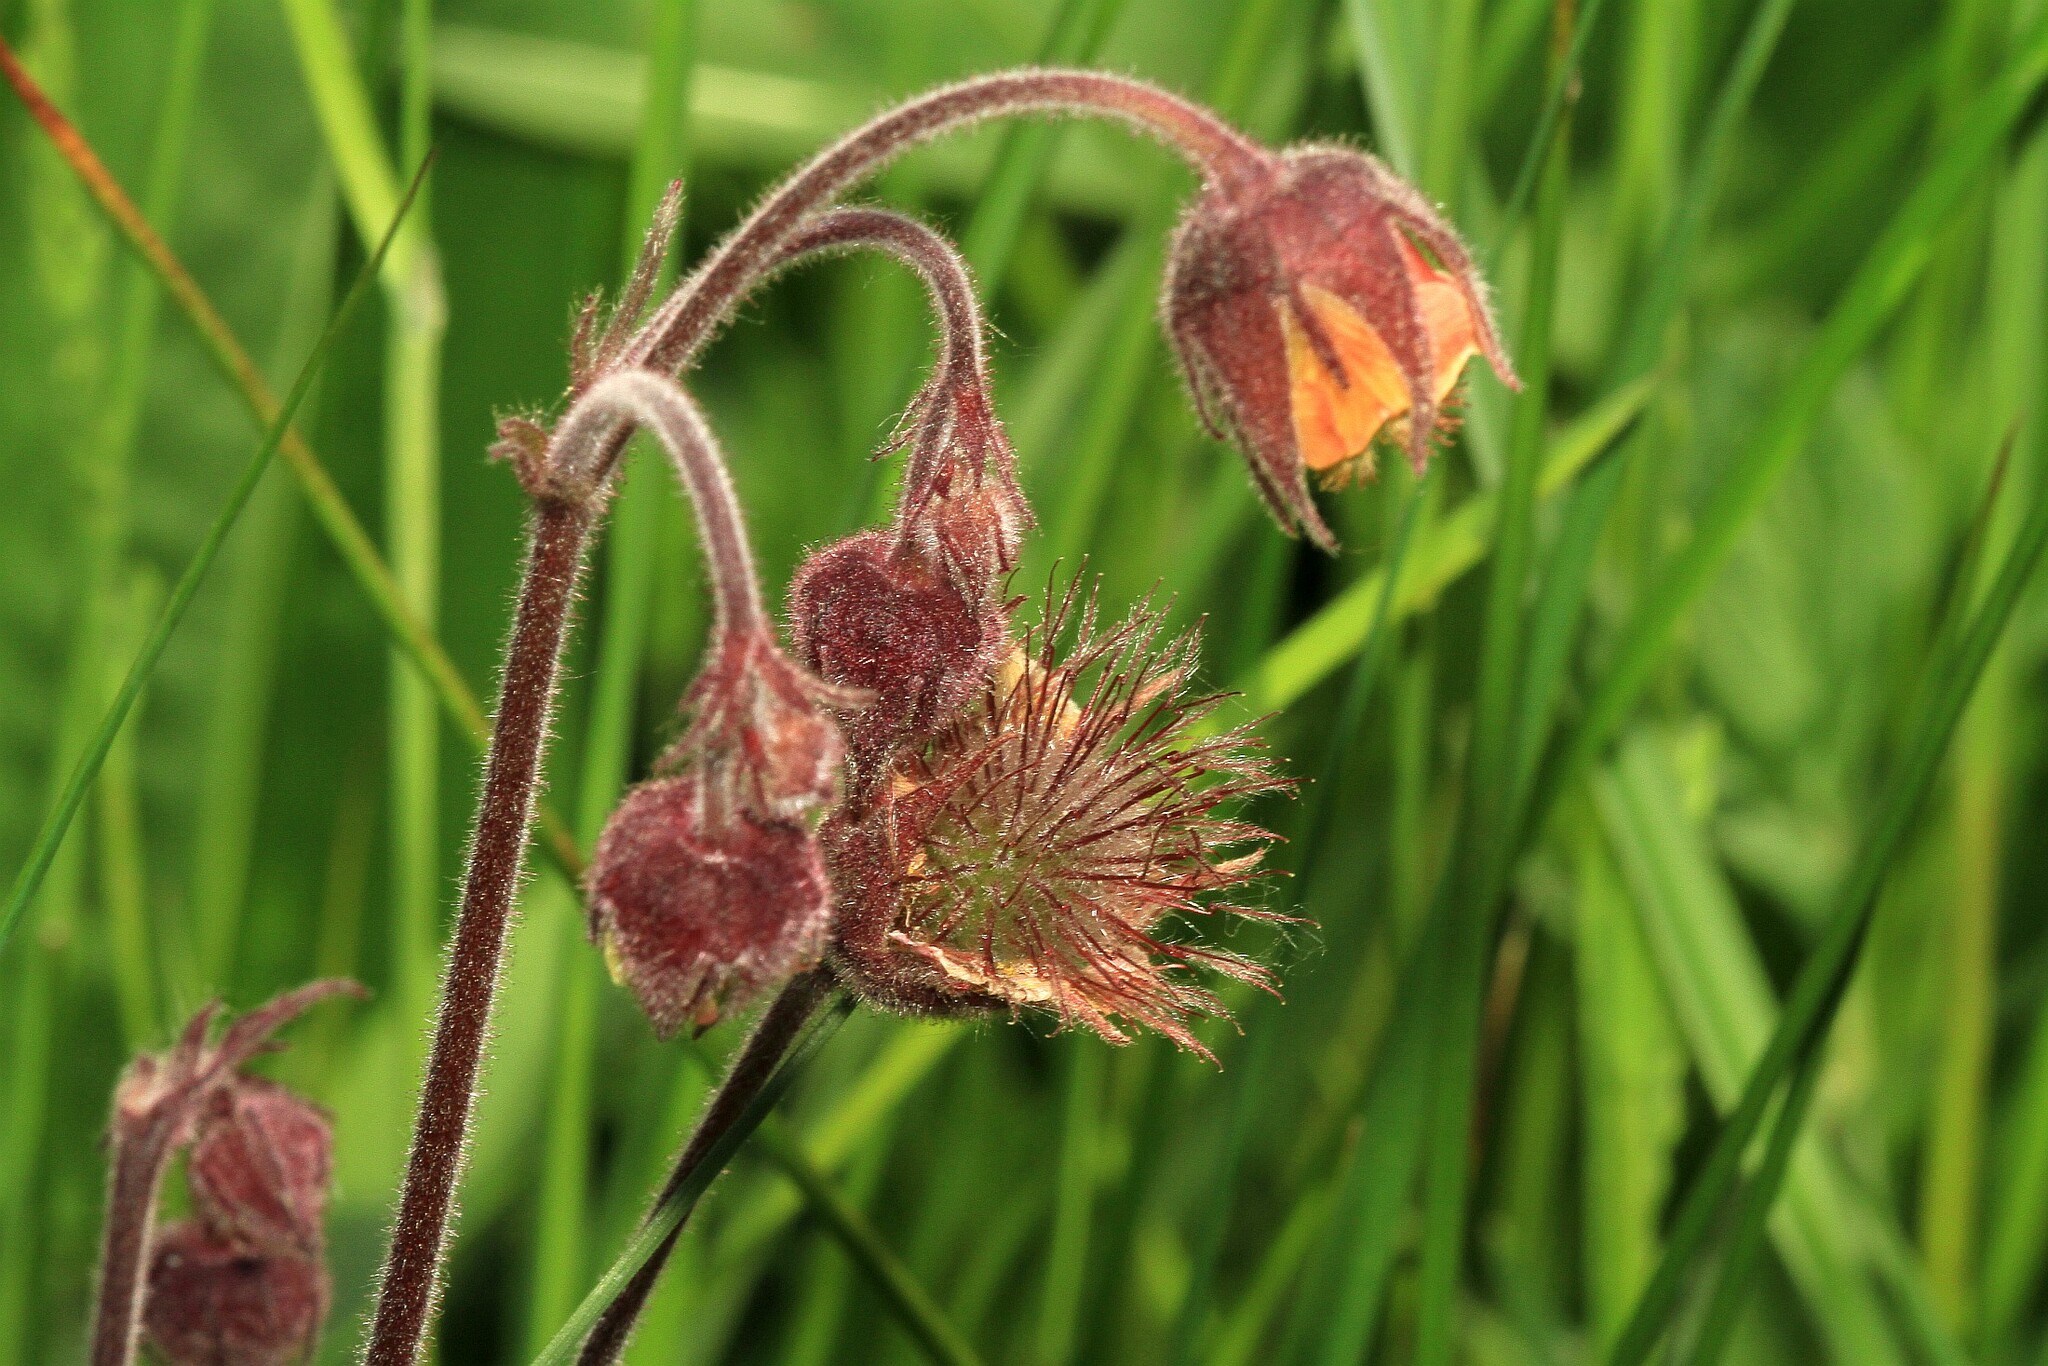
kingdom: Plantae
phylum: Tracheophyta
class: Magnoliopsida
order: Rosales
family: Rosaceae
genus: Geum
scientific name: Geum rivale
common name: Water avens
